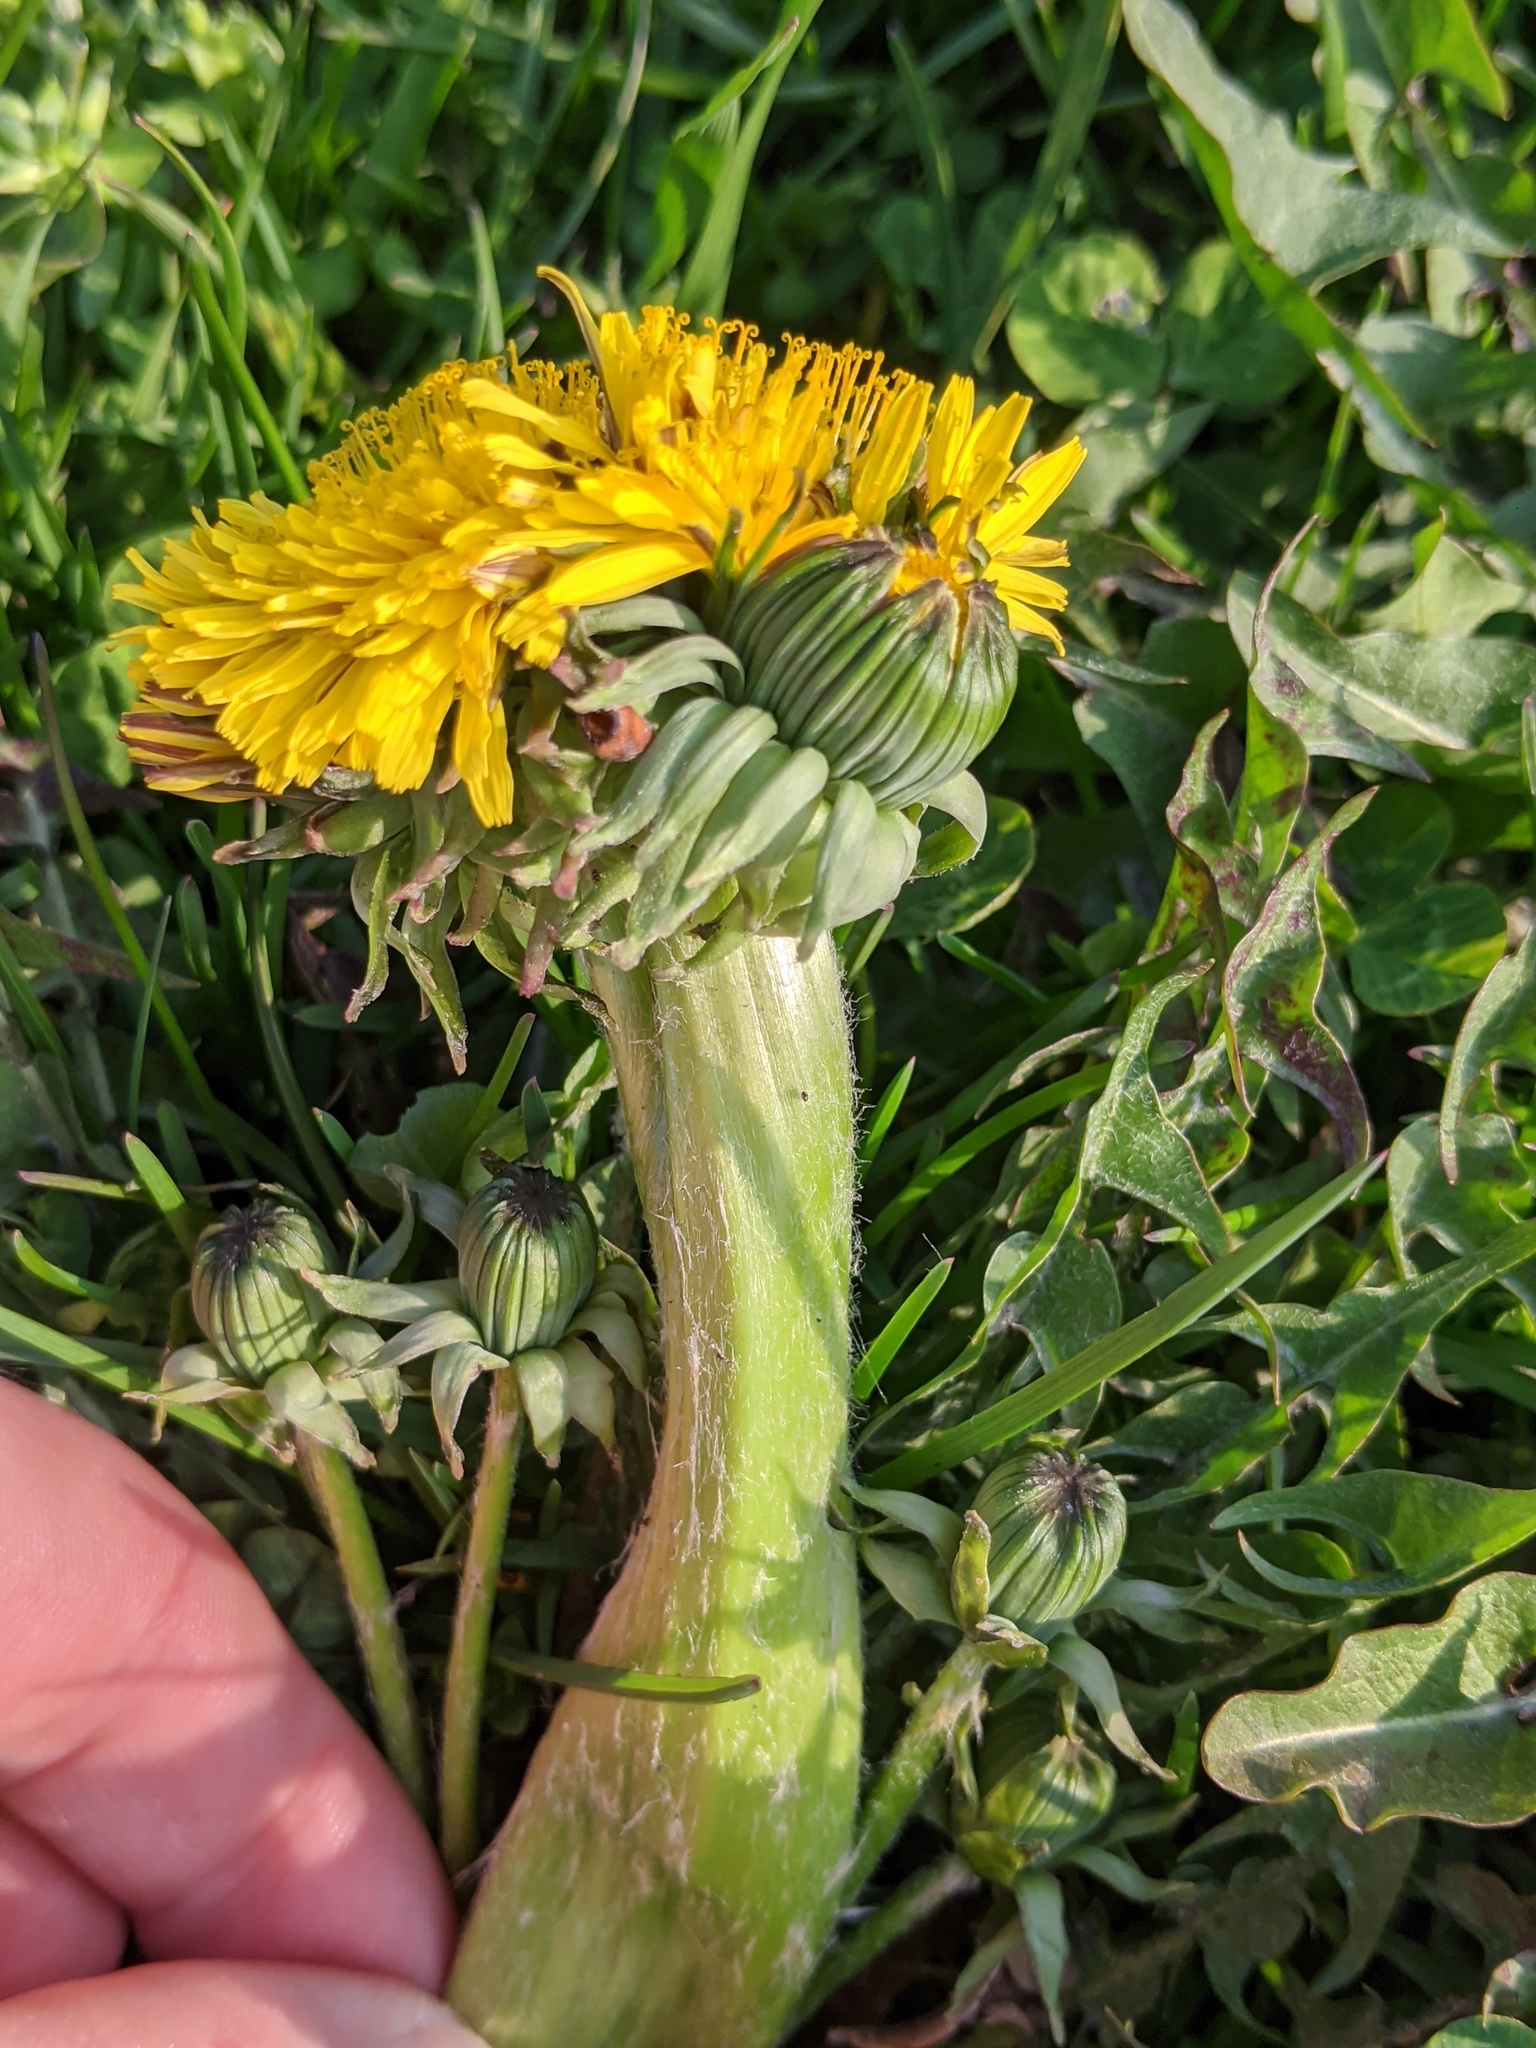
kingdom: Plantae
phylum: Tracheophyta
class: Magnoliopsida
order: Asterales
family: Asteraceae
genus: Taraxacum
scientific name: Taraxacum officinale
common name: Common dandelion
